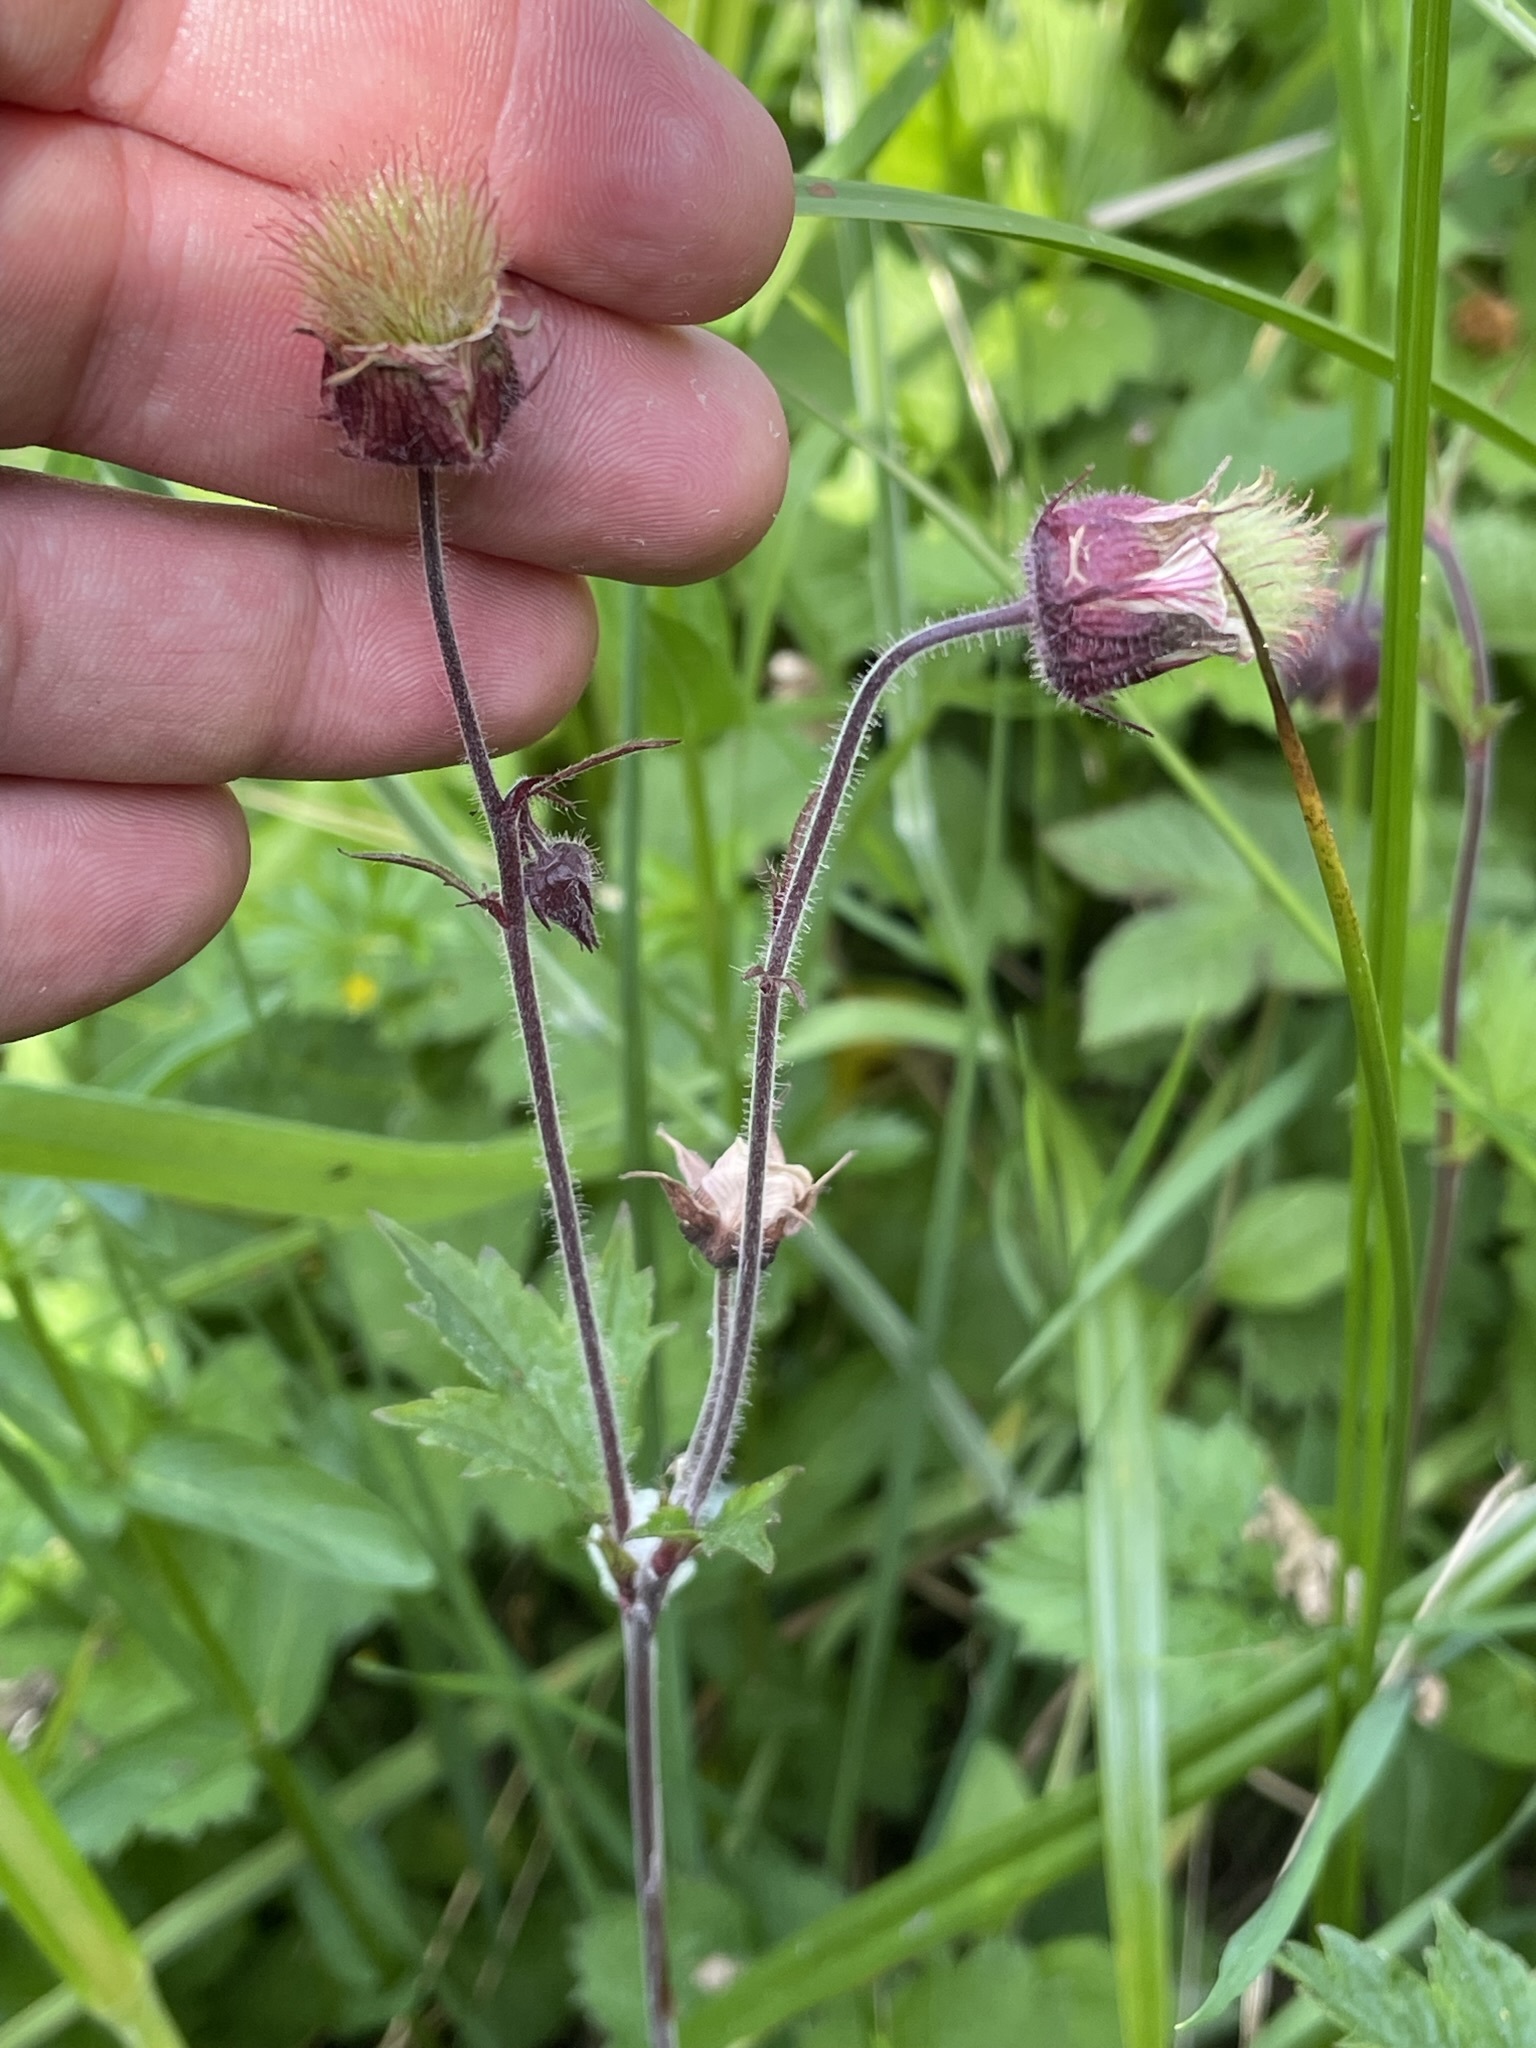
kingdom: Plantae
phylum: Tracheophyta
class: Magnoliopsida
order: Rosales
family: Rosaceae
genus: Geum
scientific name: Geum rivale
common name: Water avens
